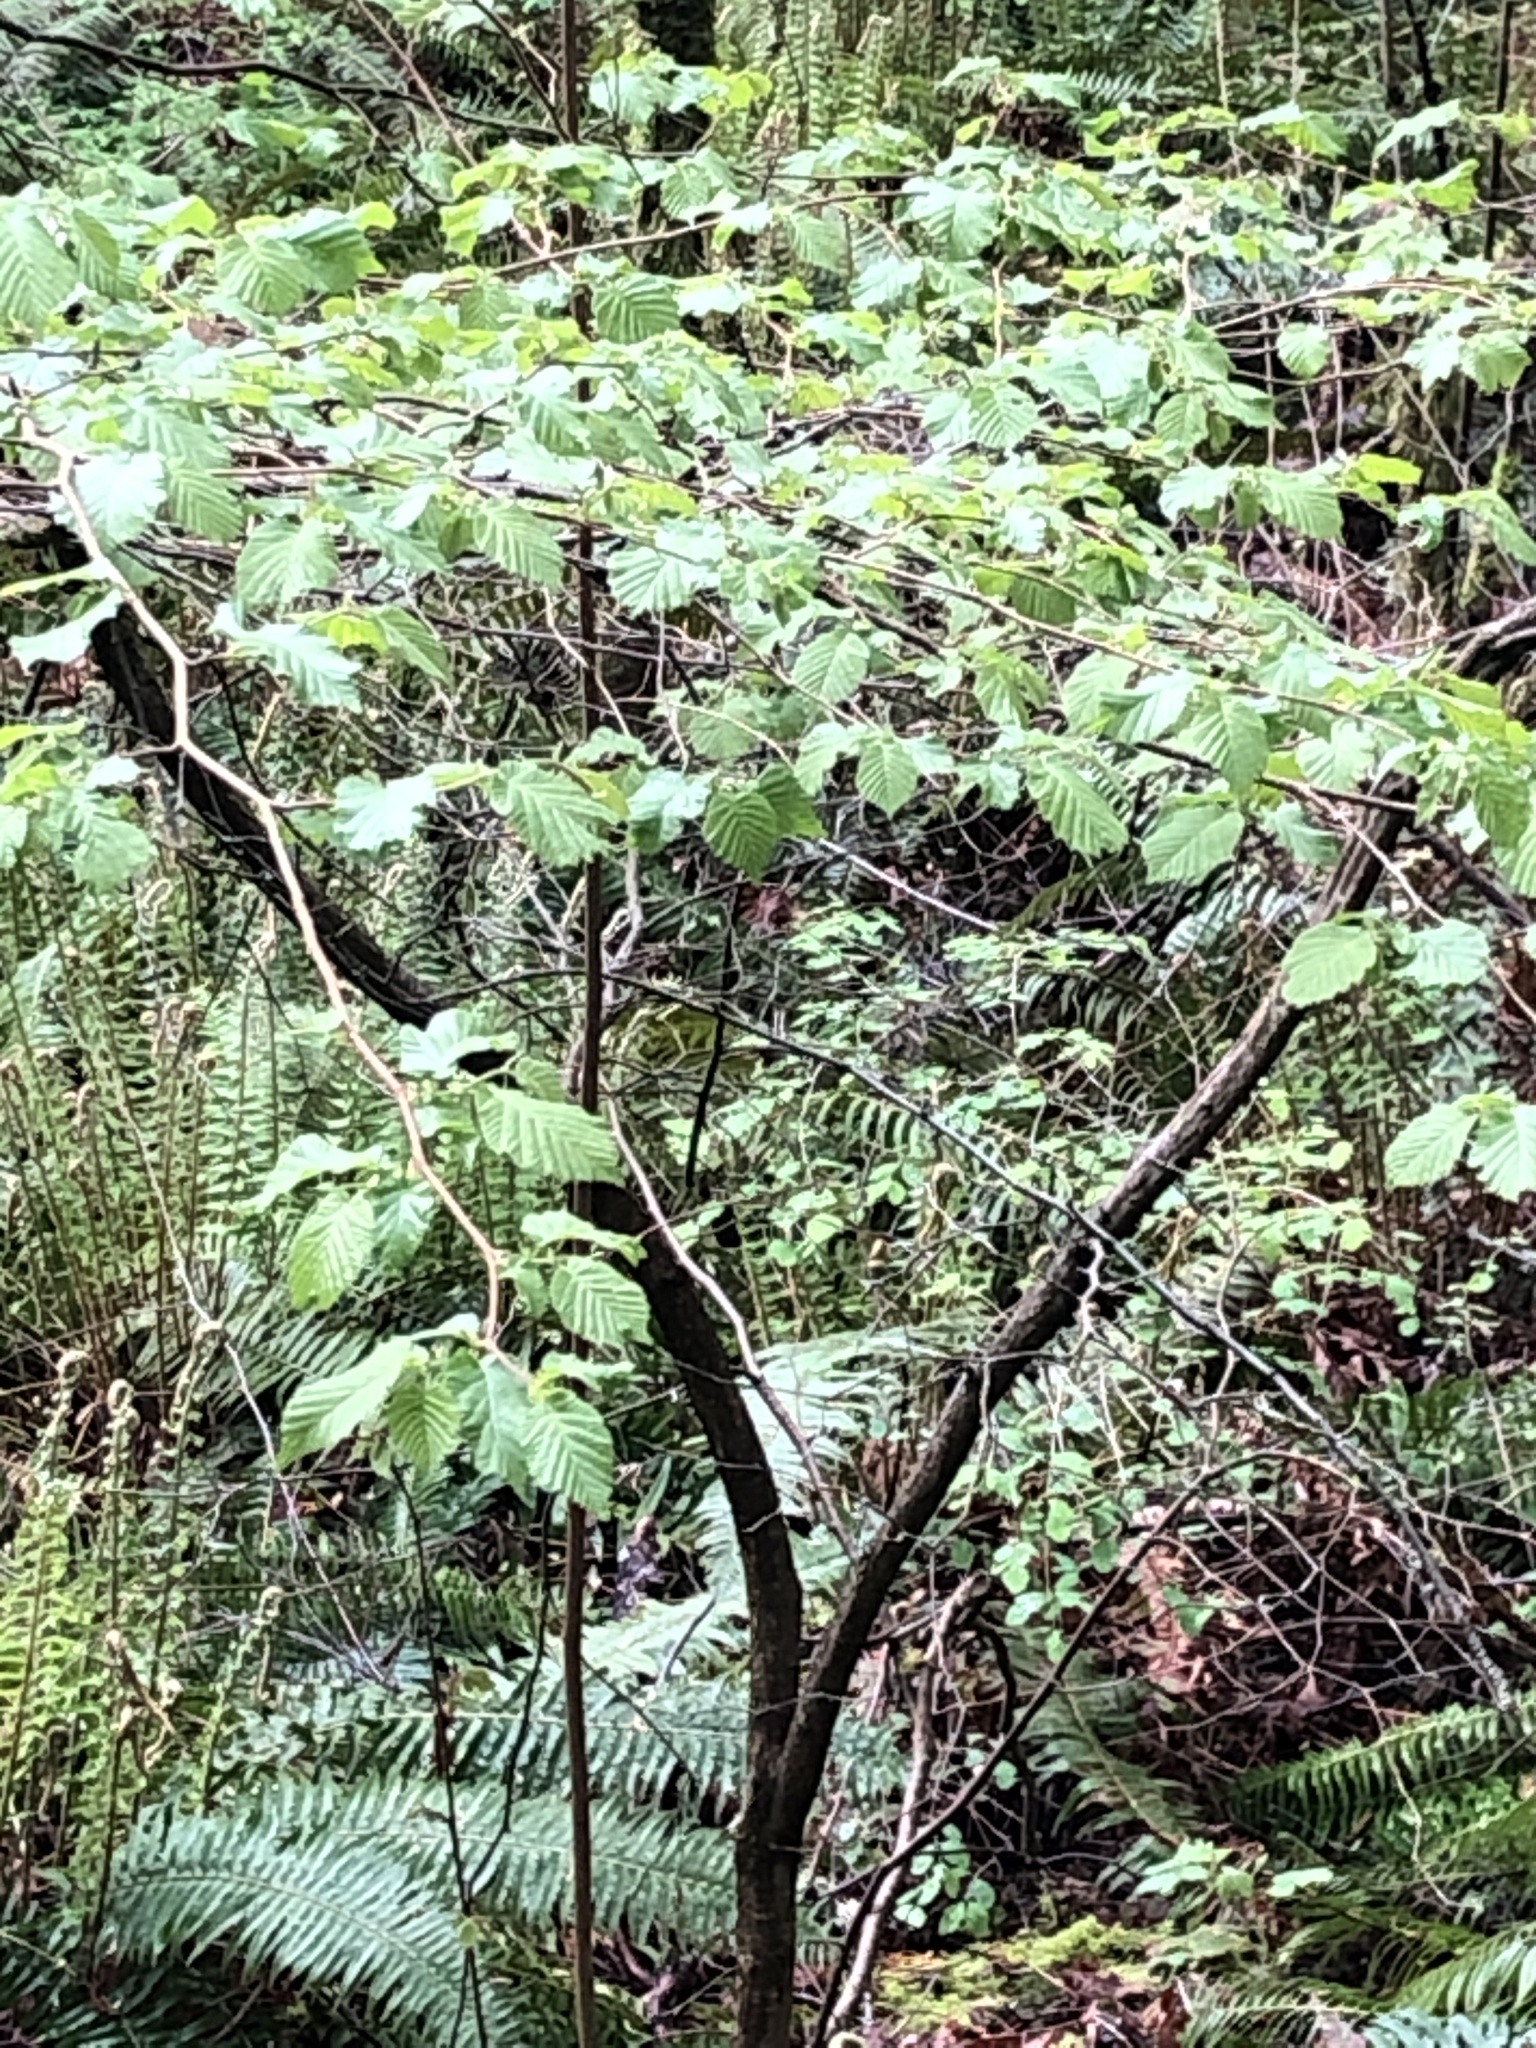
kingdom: Plantae
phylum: Tracheophyta
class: Magnoliopsida
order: Fagales
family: Betulaceae
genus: Corylus
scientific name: Corylus cornuta
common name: Beaked hazel
